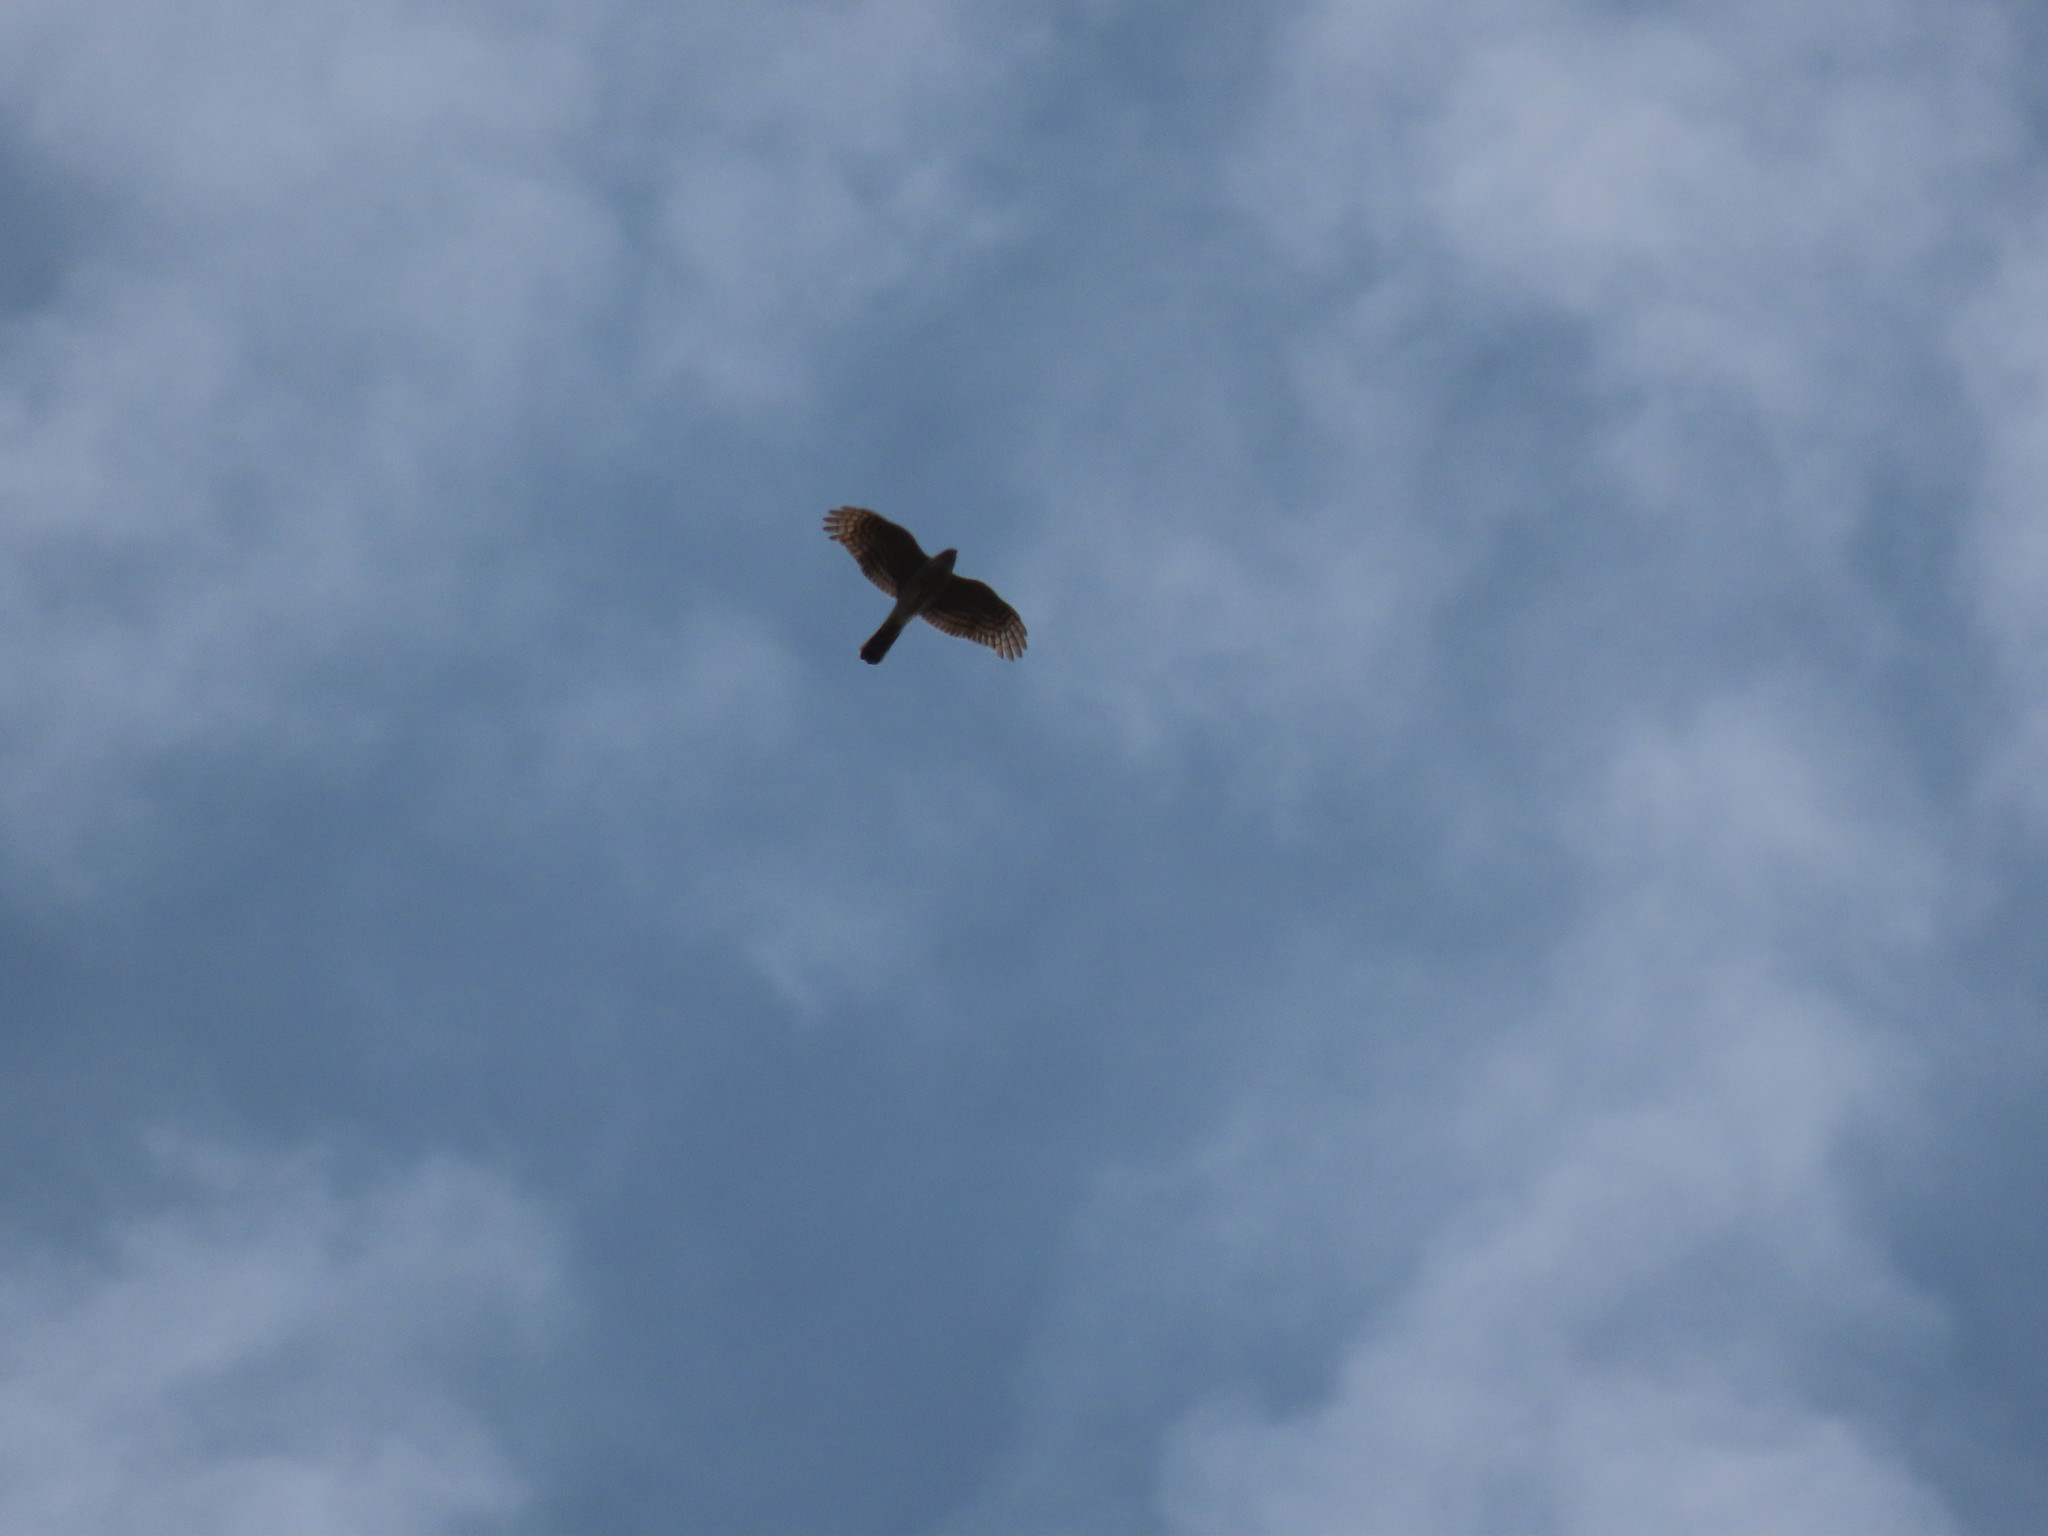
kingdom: Animalia
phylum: Chordata
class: Aves
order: Accipitriformes
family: Accipitridae
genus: Accipiter
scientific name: Accipiter striatus
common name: Sharp-shinned hawk
